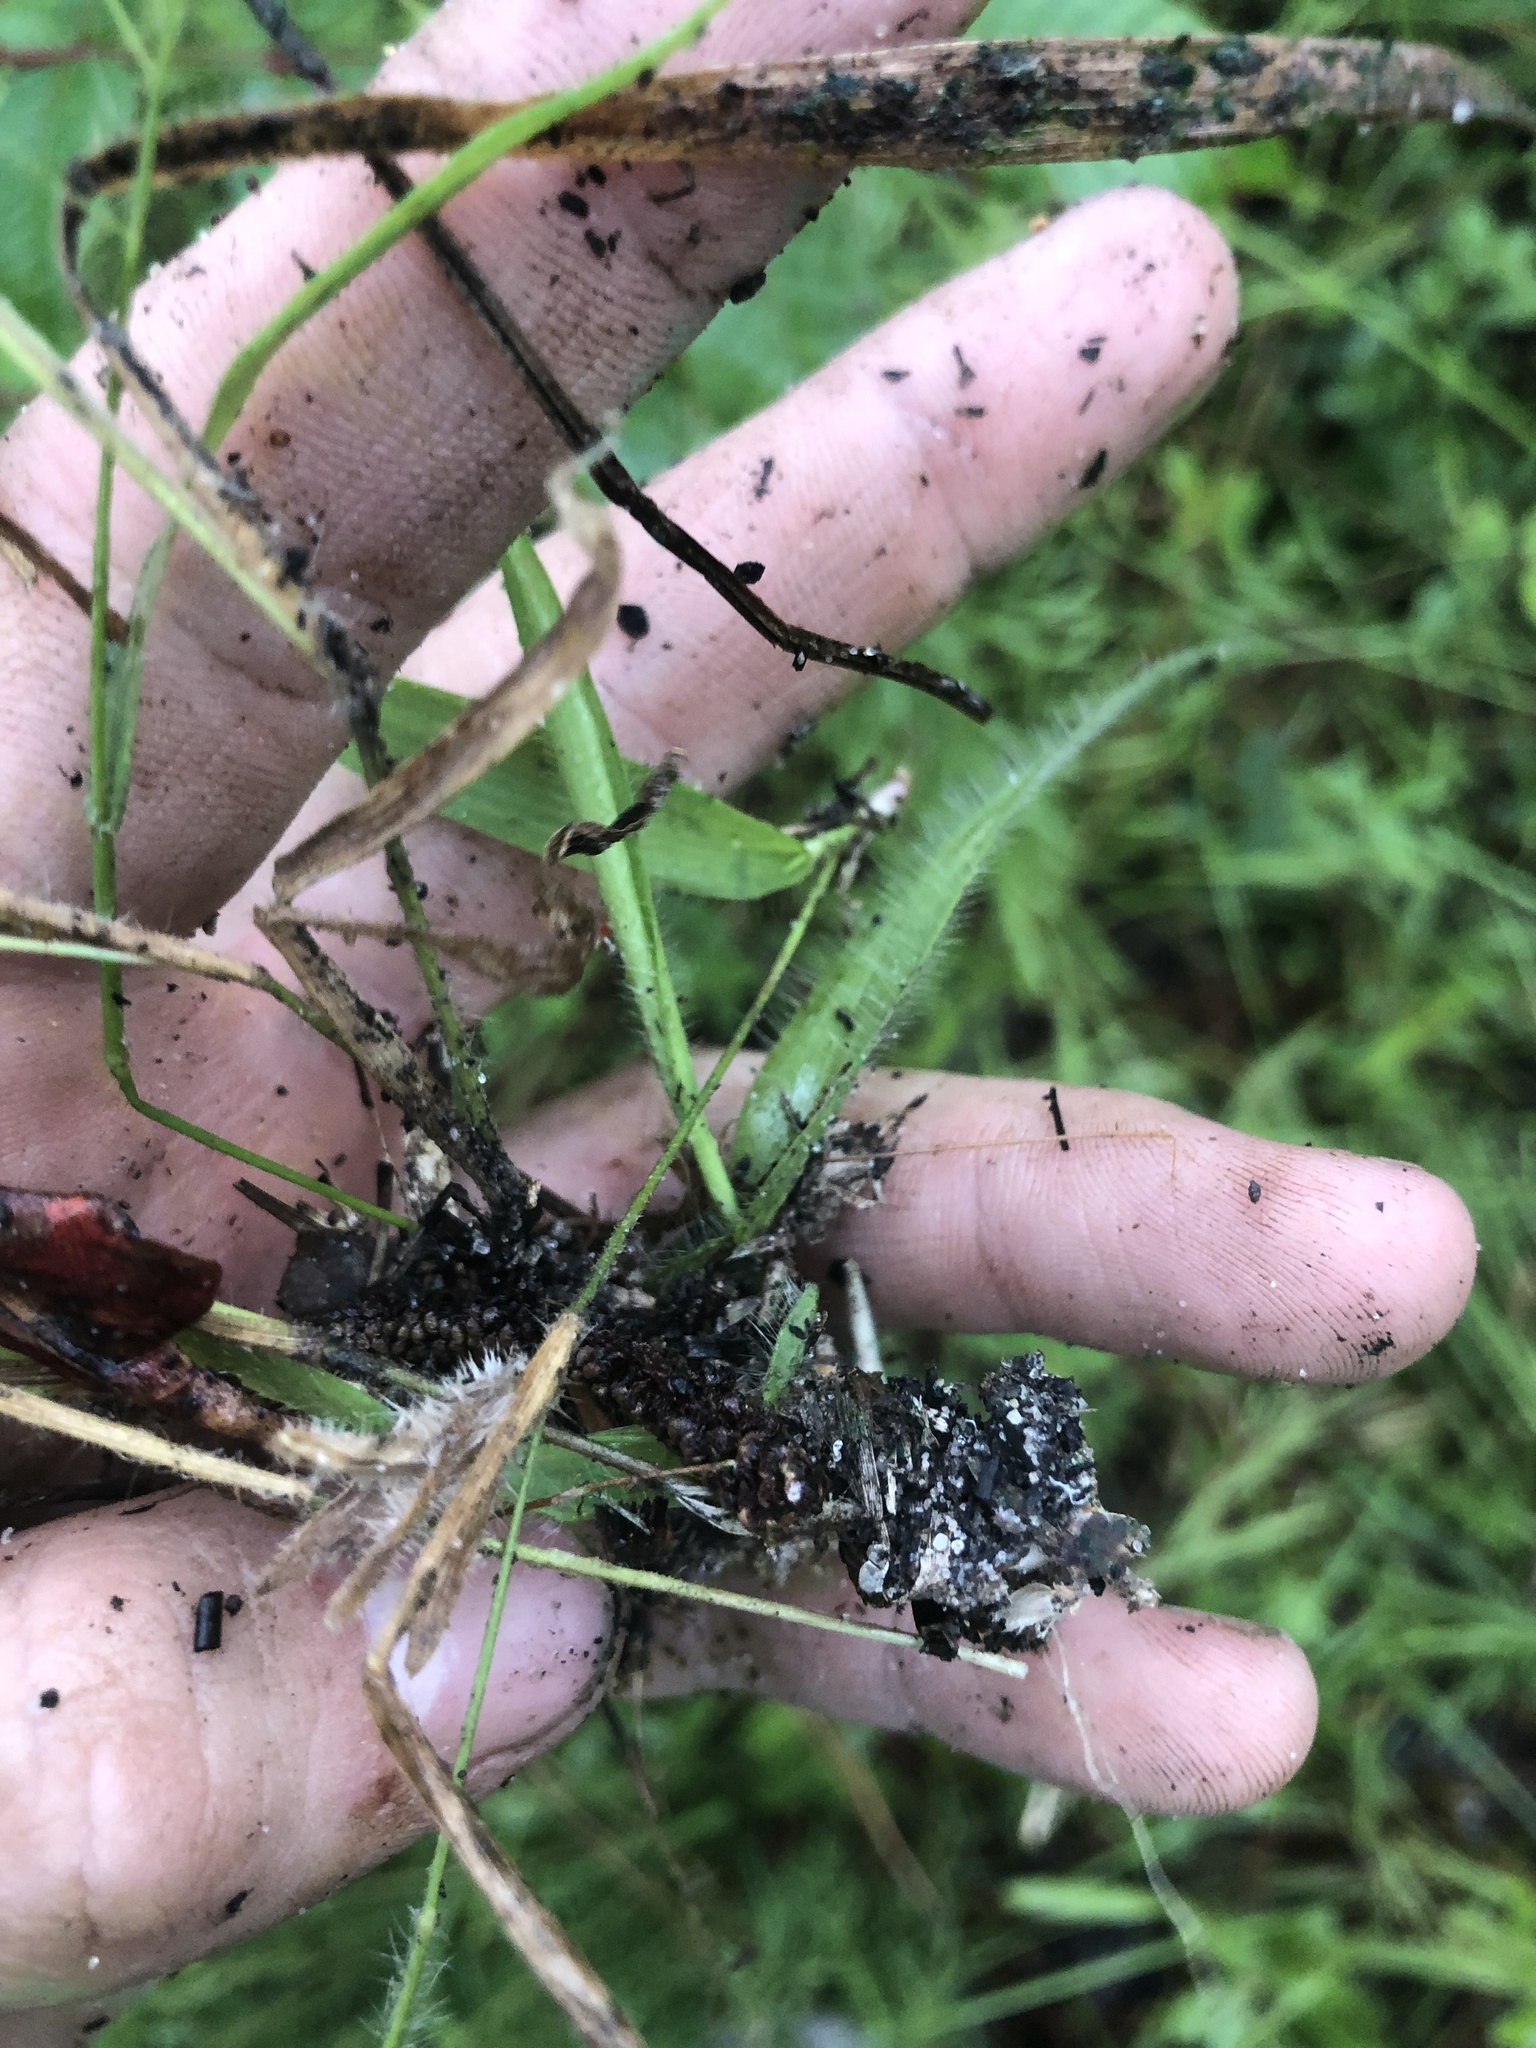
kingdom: Plantae
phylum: Tracheophyta
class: Liliopsida
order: Poales
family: Poaceae
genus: Dichanthelium
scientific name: Dichanthelium patulum
